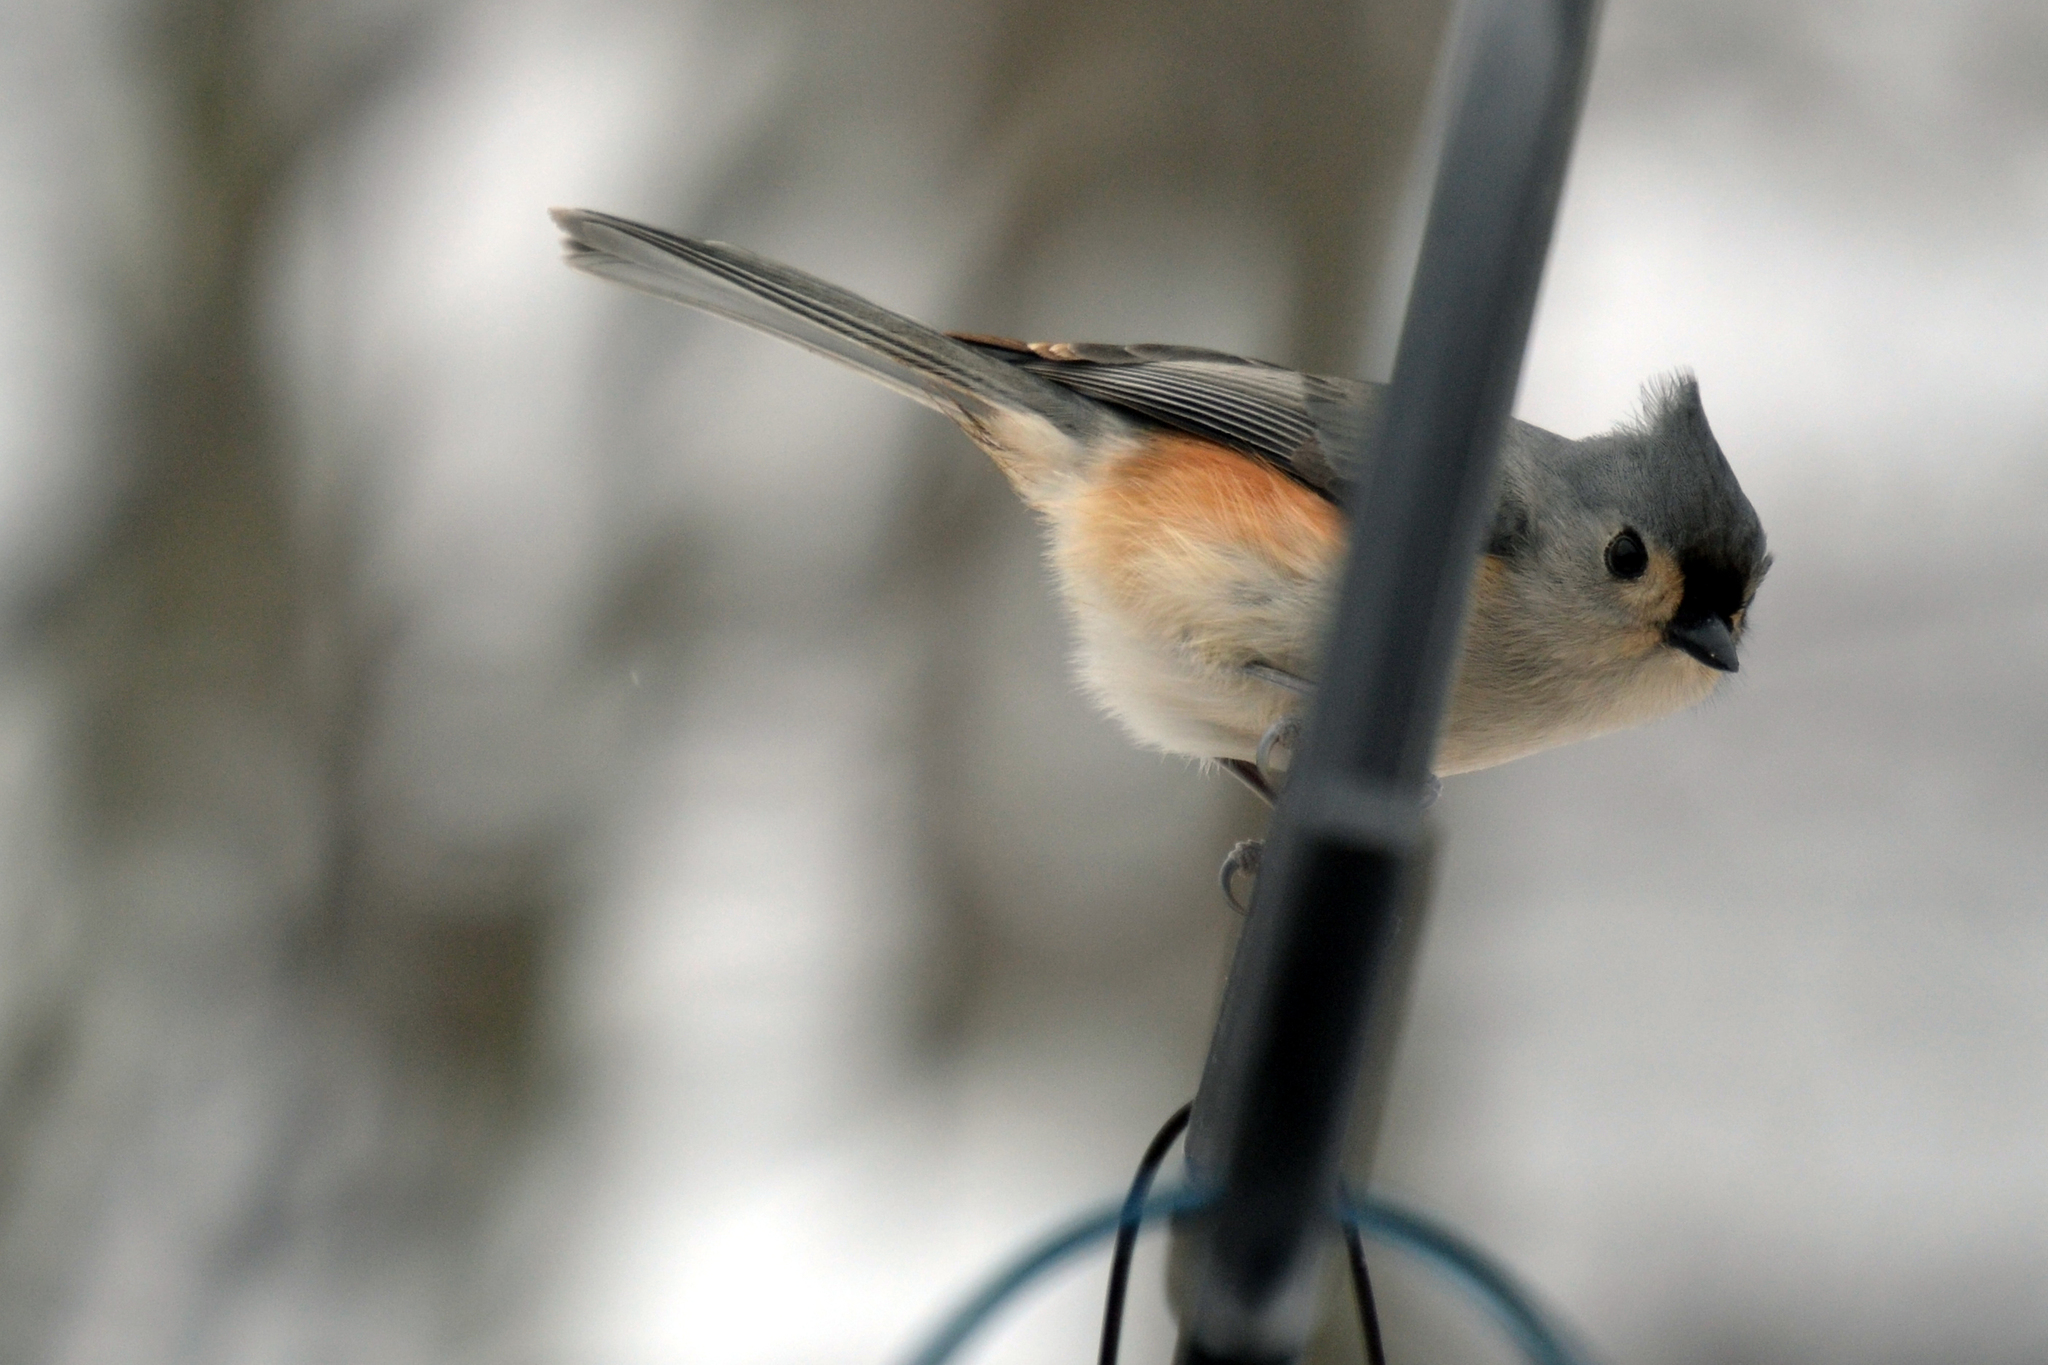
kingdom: Animalia
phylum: Chordata
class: Aves
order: Passeriformes
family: Paridae
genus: Baeolophus
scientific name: Baeolophus bicolor
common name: Tufted titmouse
